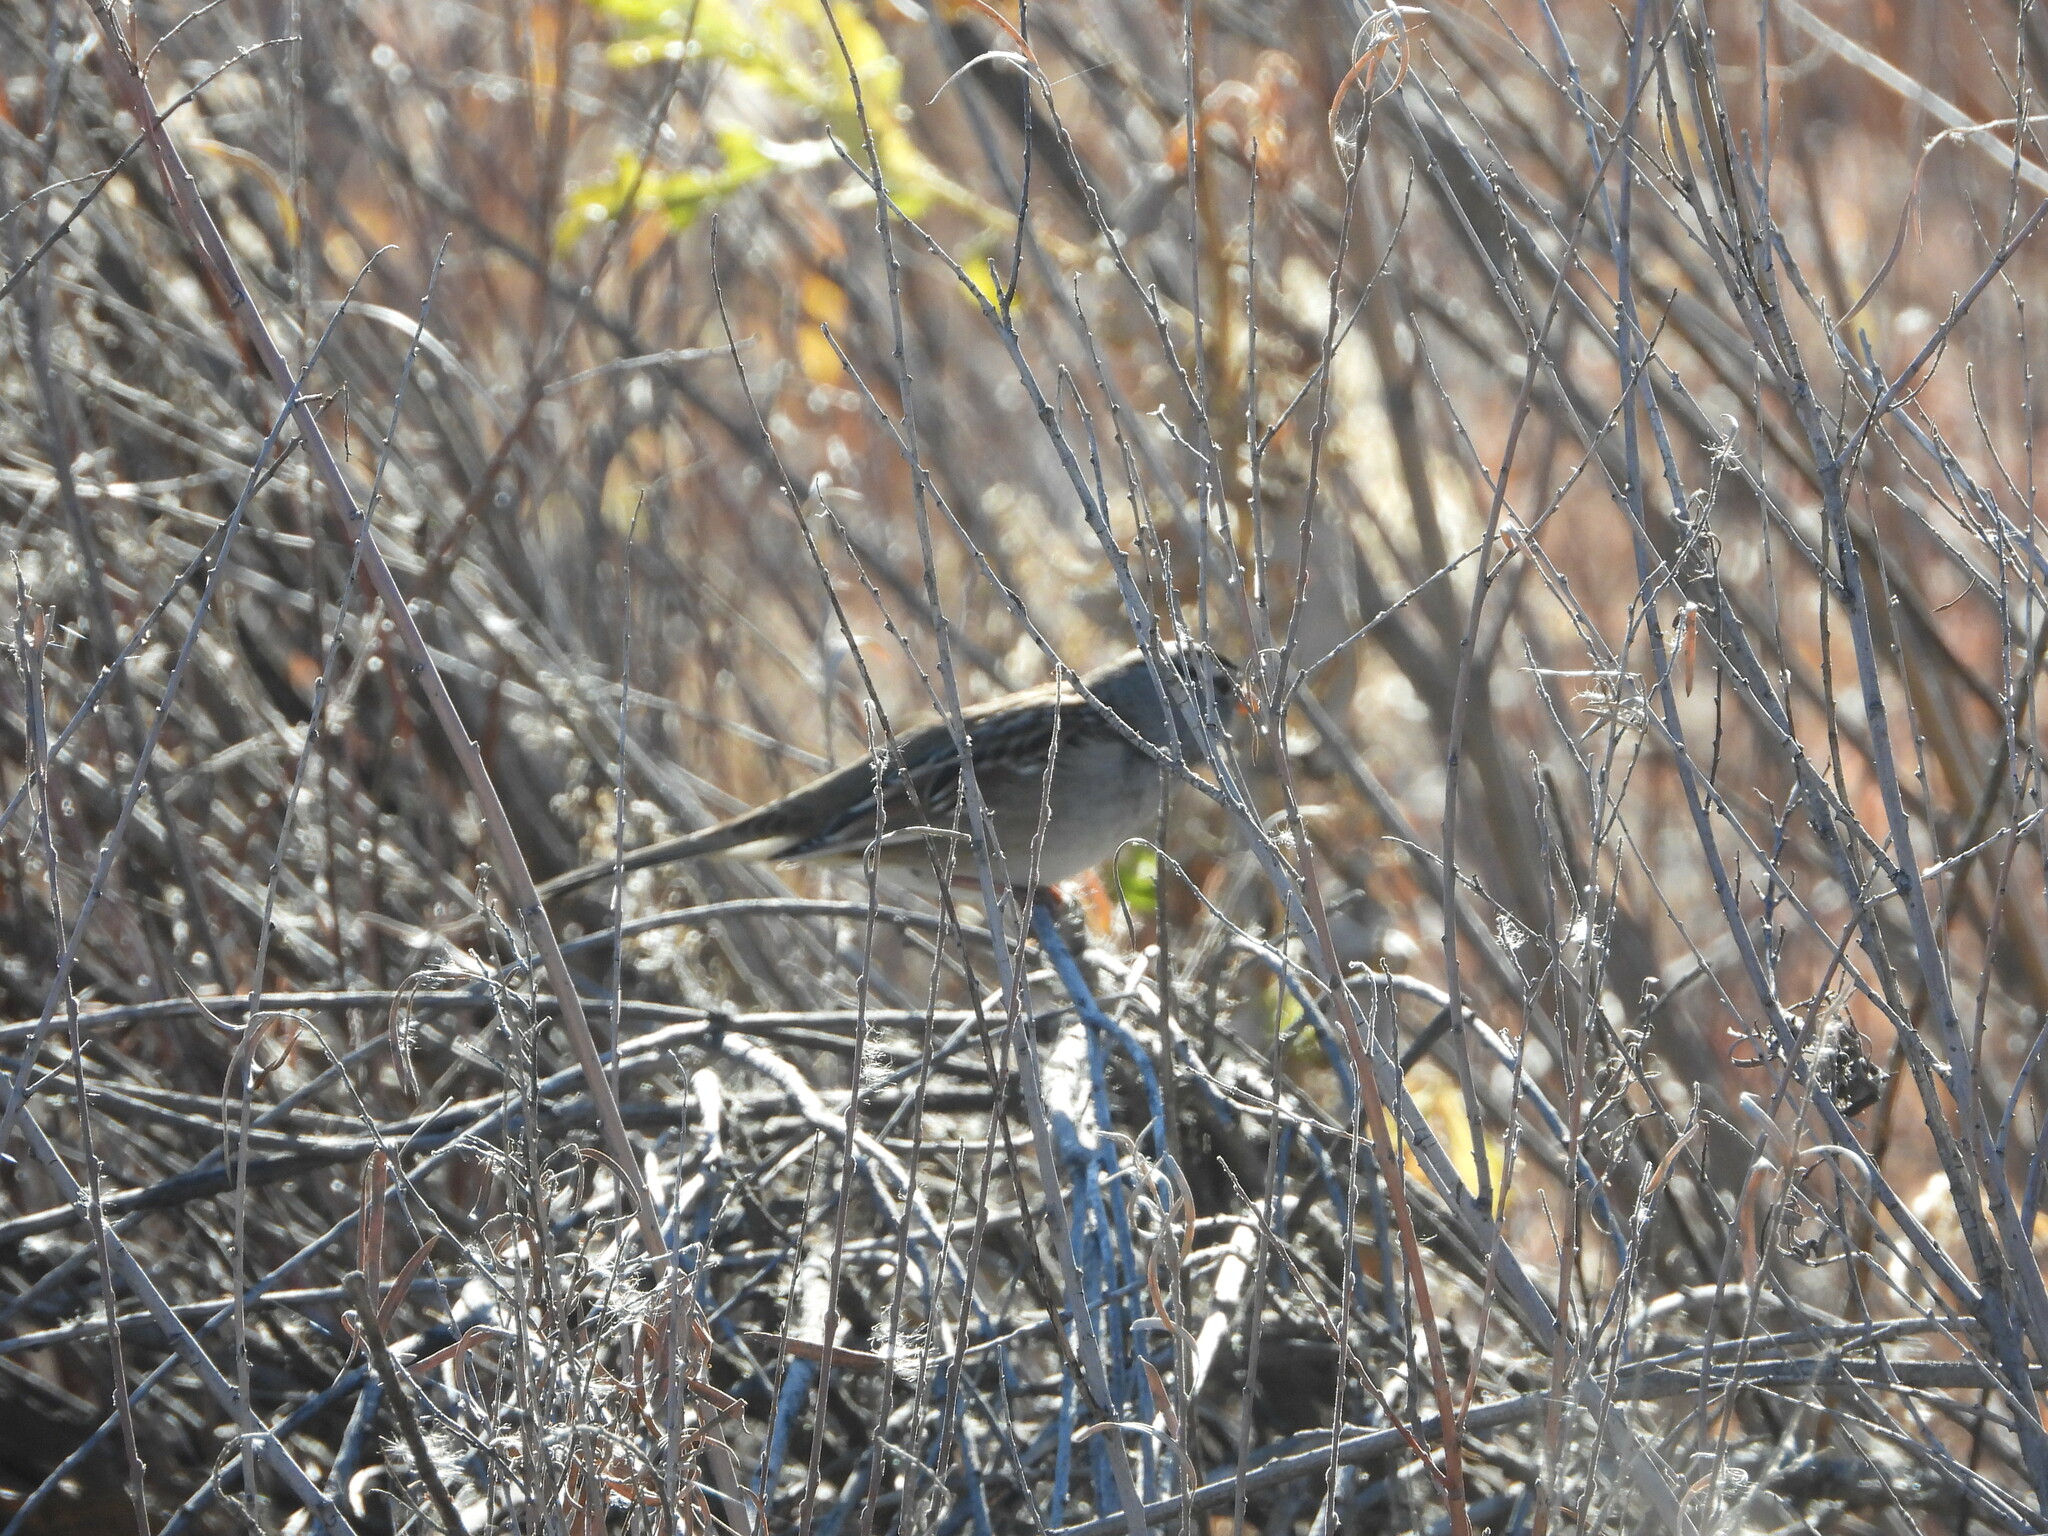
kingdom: Animalia
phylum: Chordata
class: Aves
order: Passeriformes
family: Passerellidae
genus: Zonotrichia
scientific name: Zonotrichia leucophrys
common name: White-crowned sparrow
